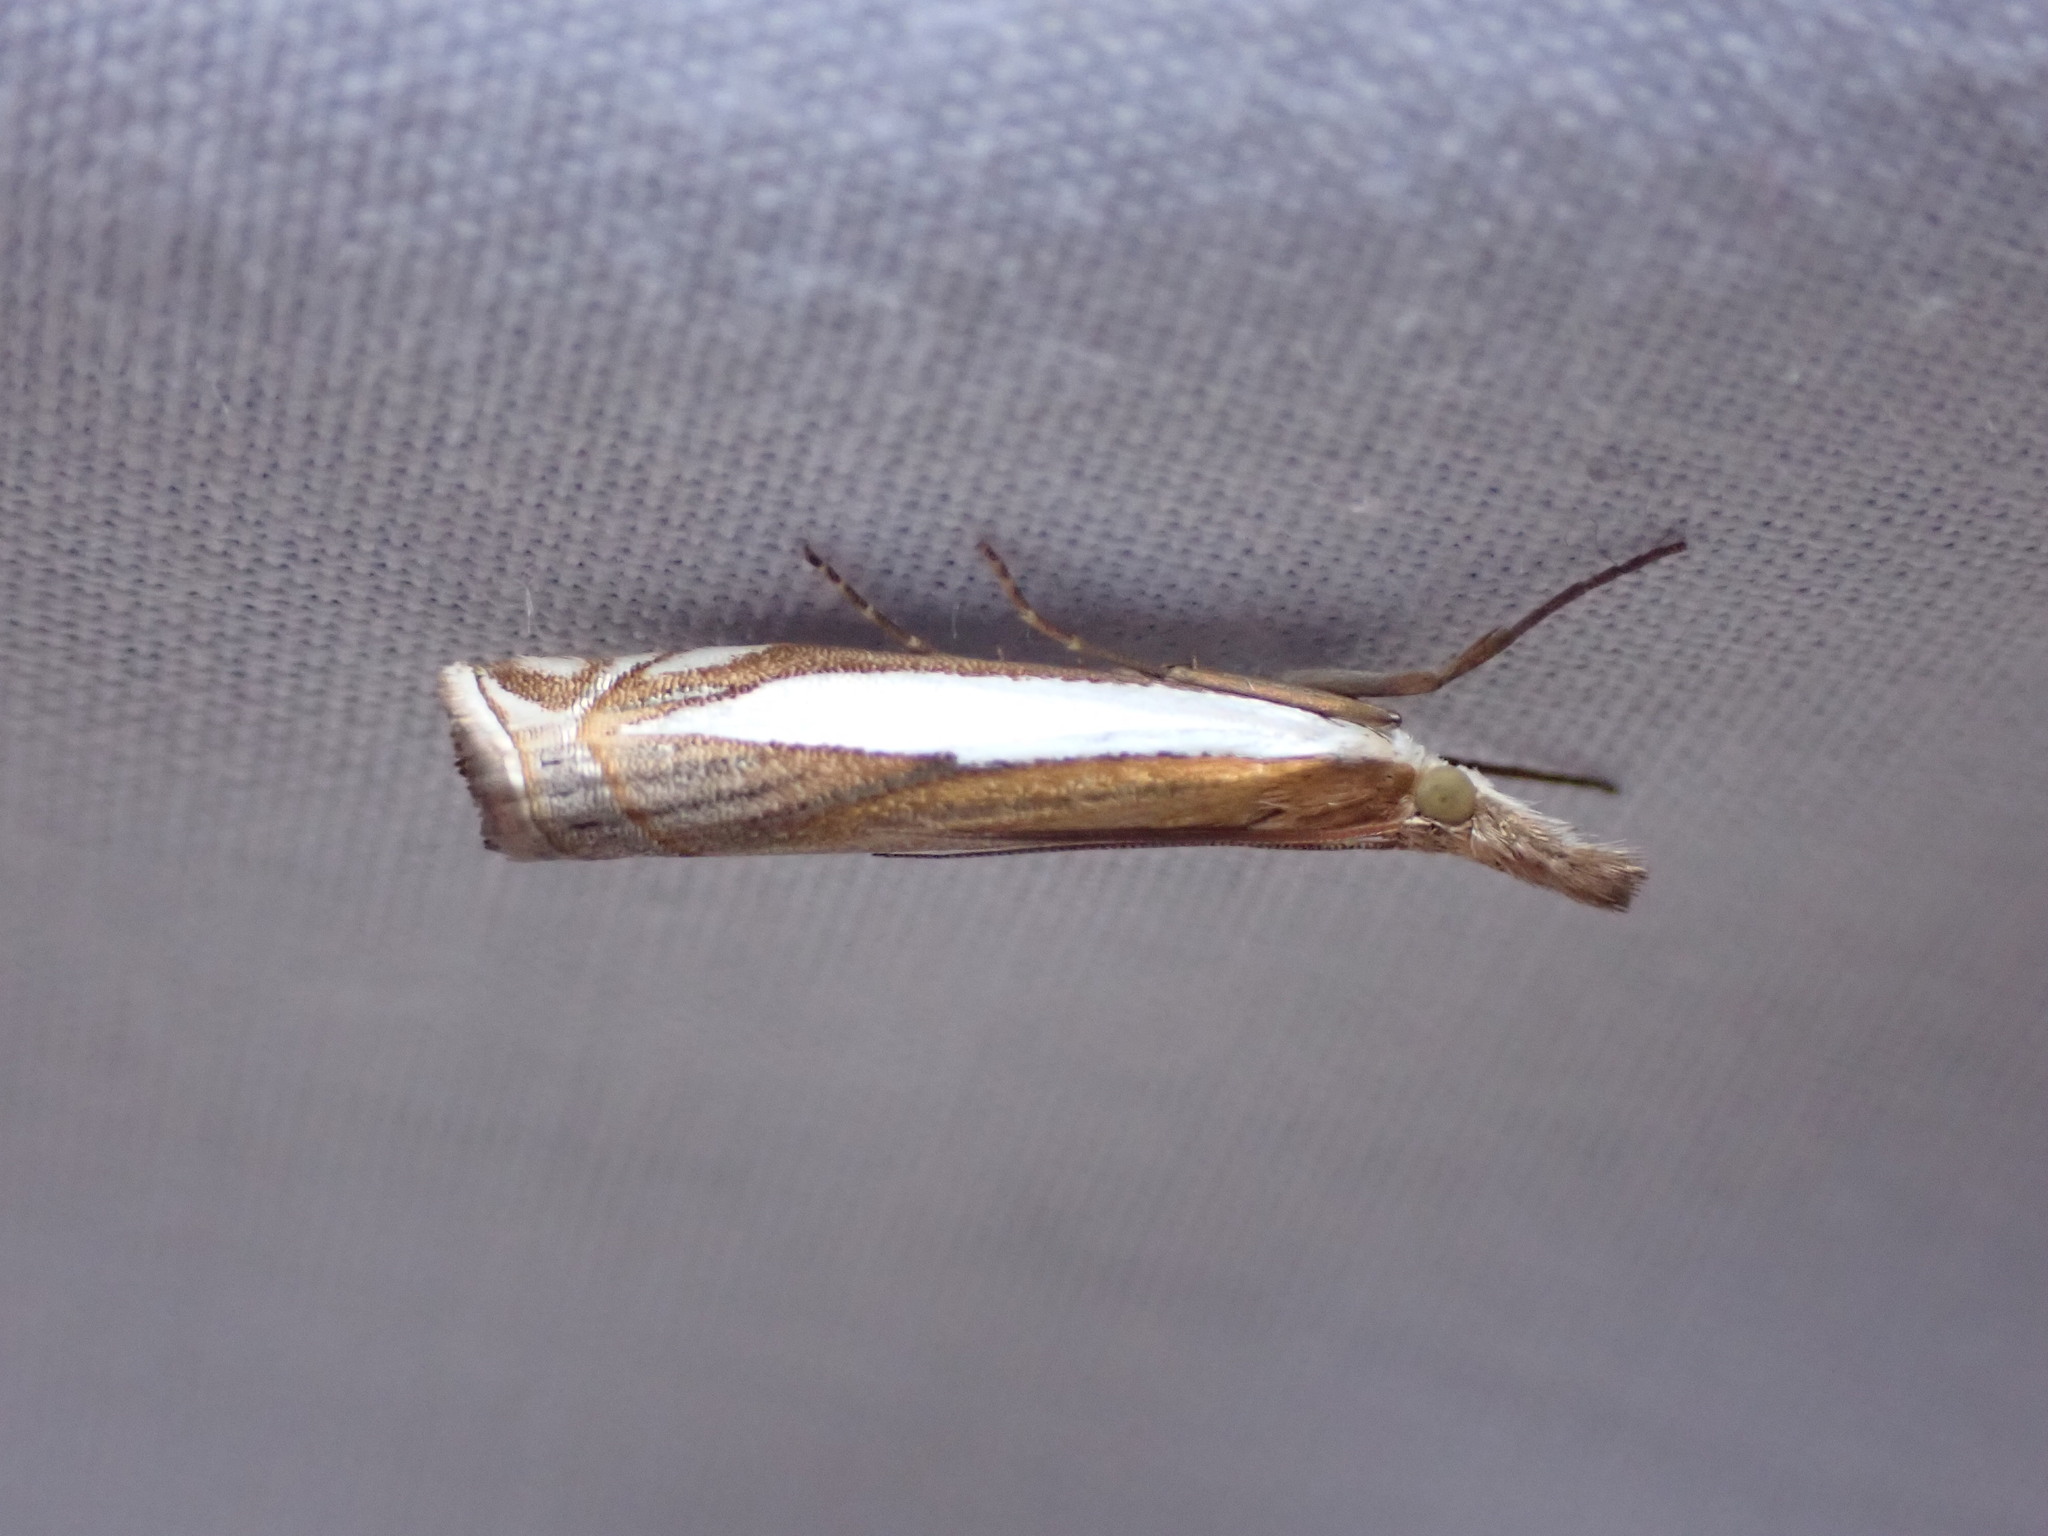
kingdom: Animalia
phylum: Arthropoda
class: Insecta
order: Lepidoptera
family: Crambidae
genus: Crambus
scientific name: Crambus leachellus
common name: Leach's grass-veneer
